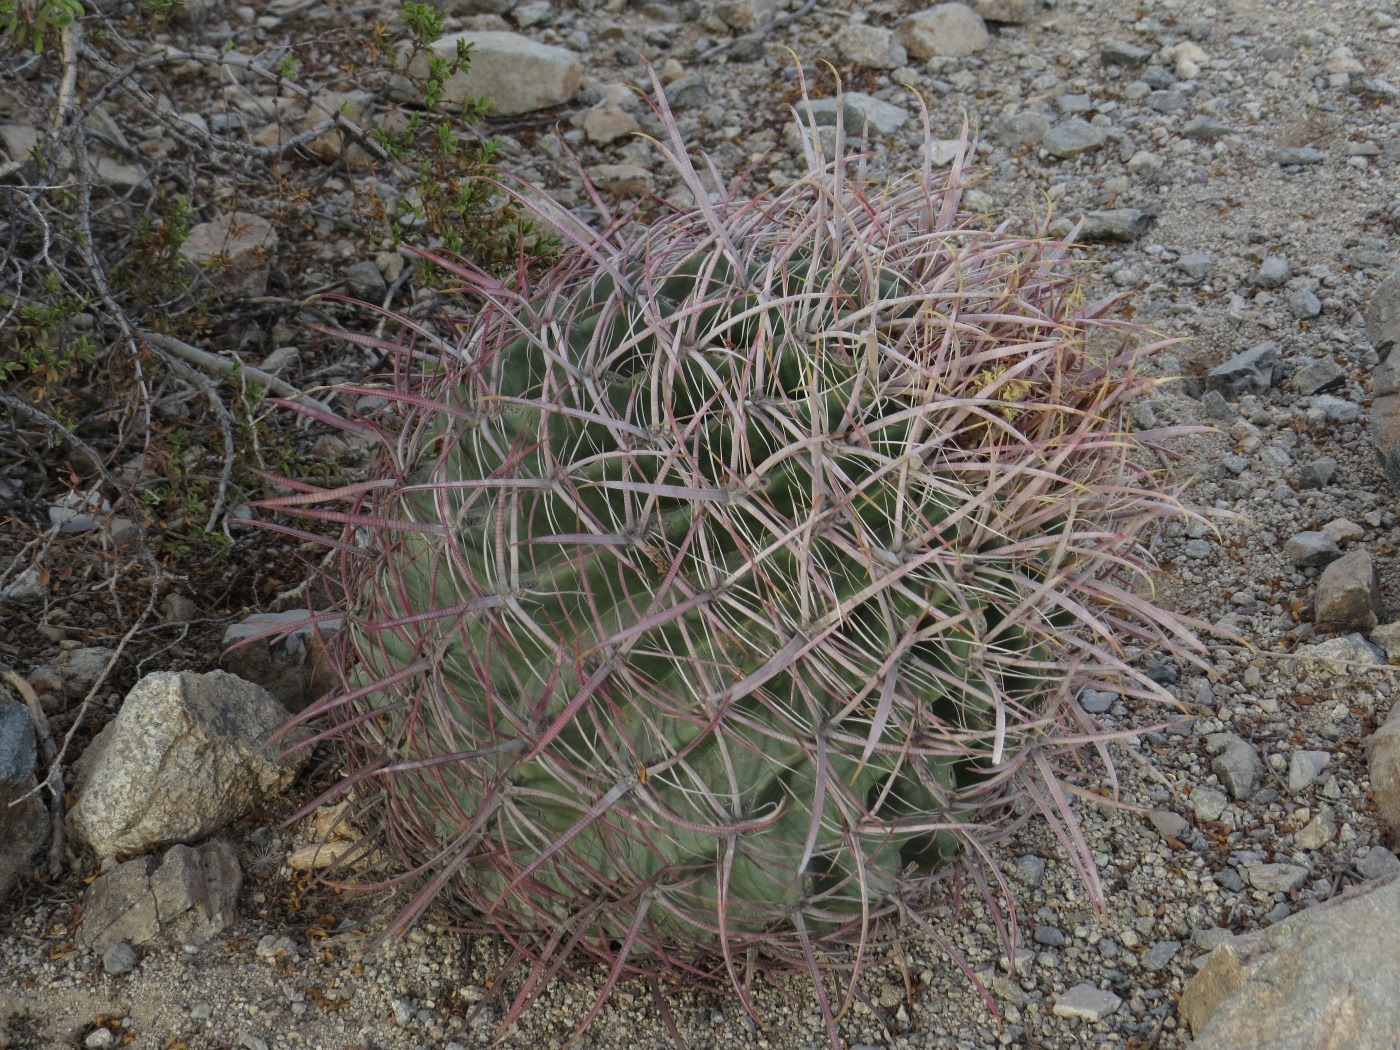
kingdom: Plantae
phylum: Tracheophyta
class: Magnoliopsida
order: Caryophyllales
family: Cactaceae
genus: Ferocactus
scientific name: Ferocactus cylindraceus
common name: California barrel cactus
